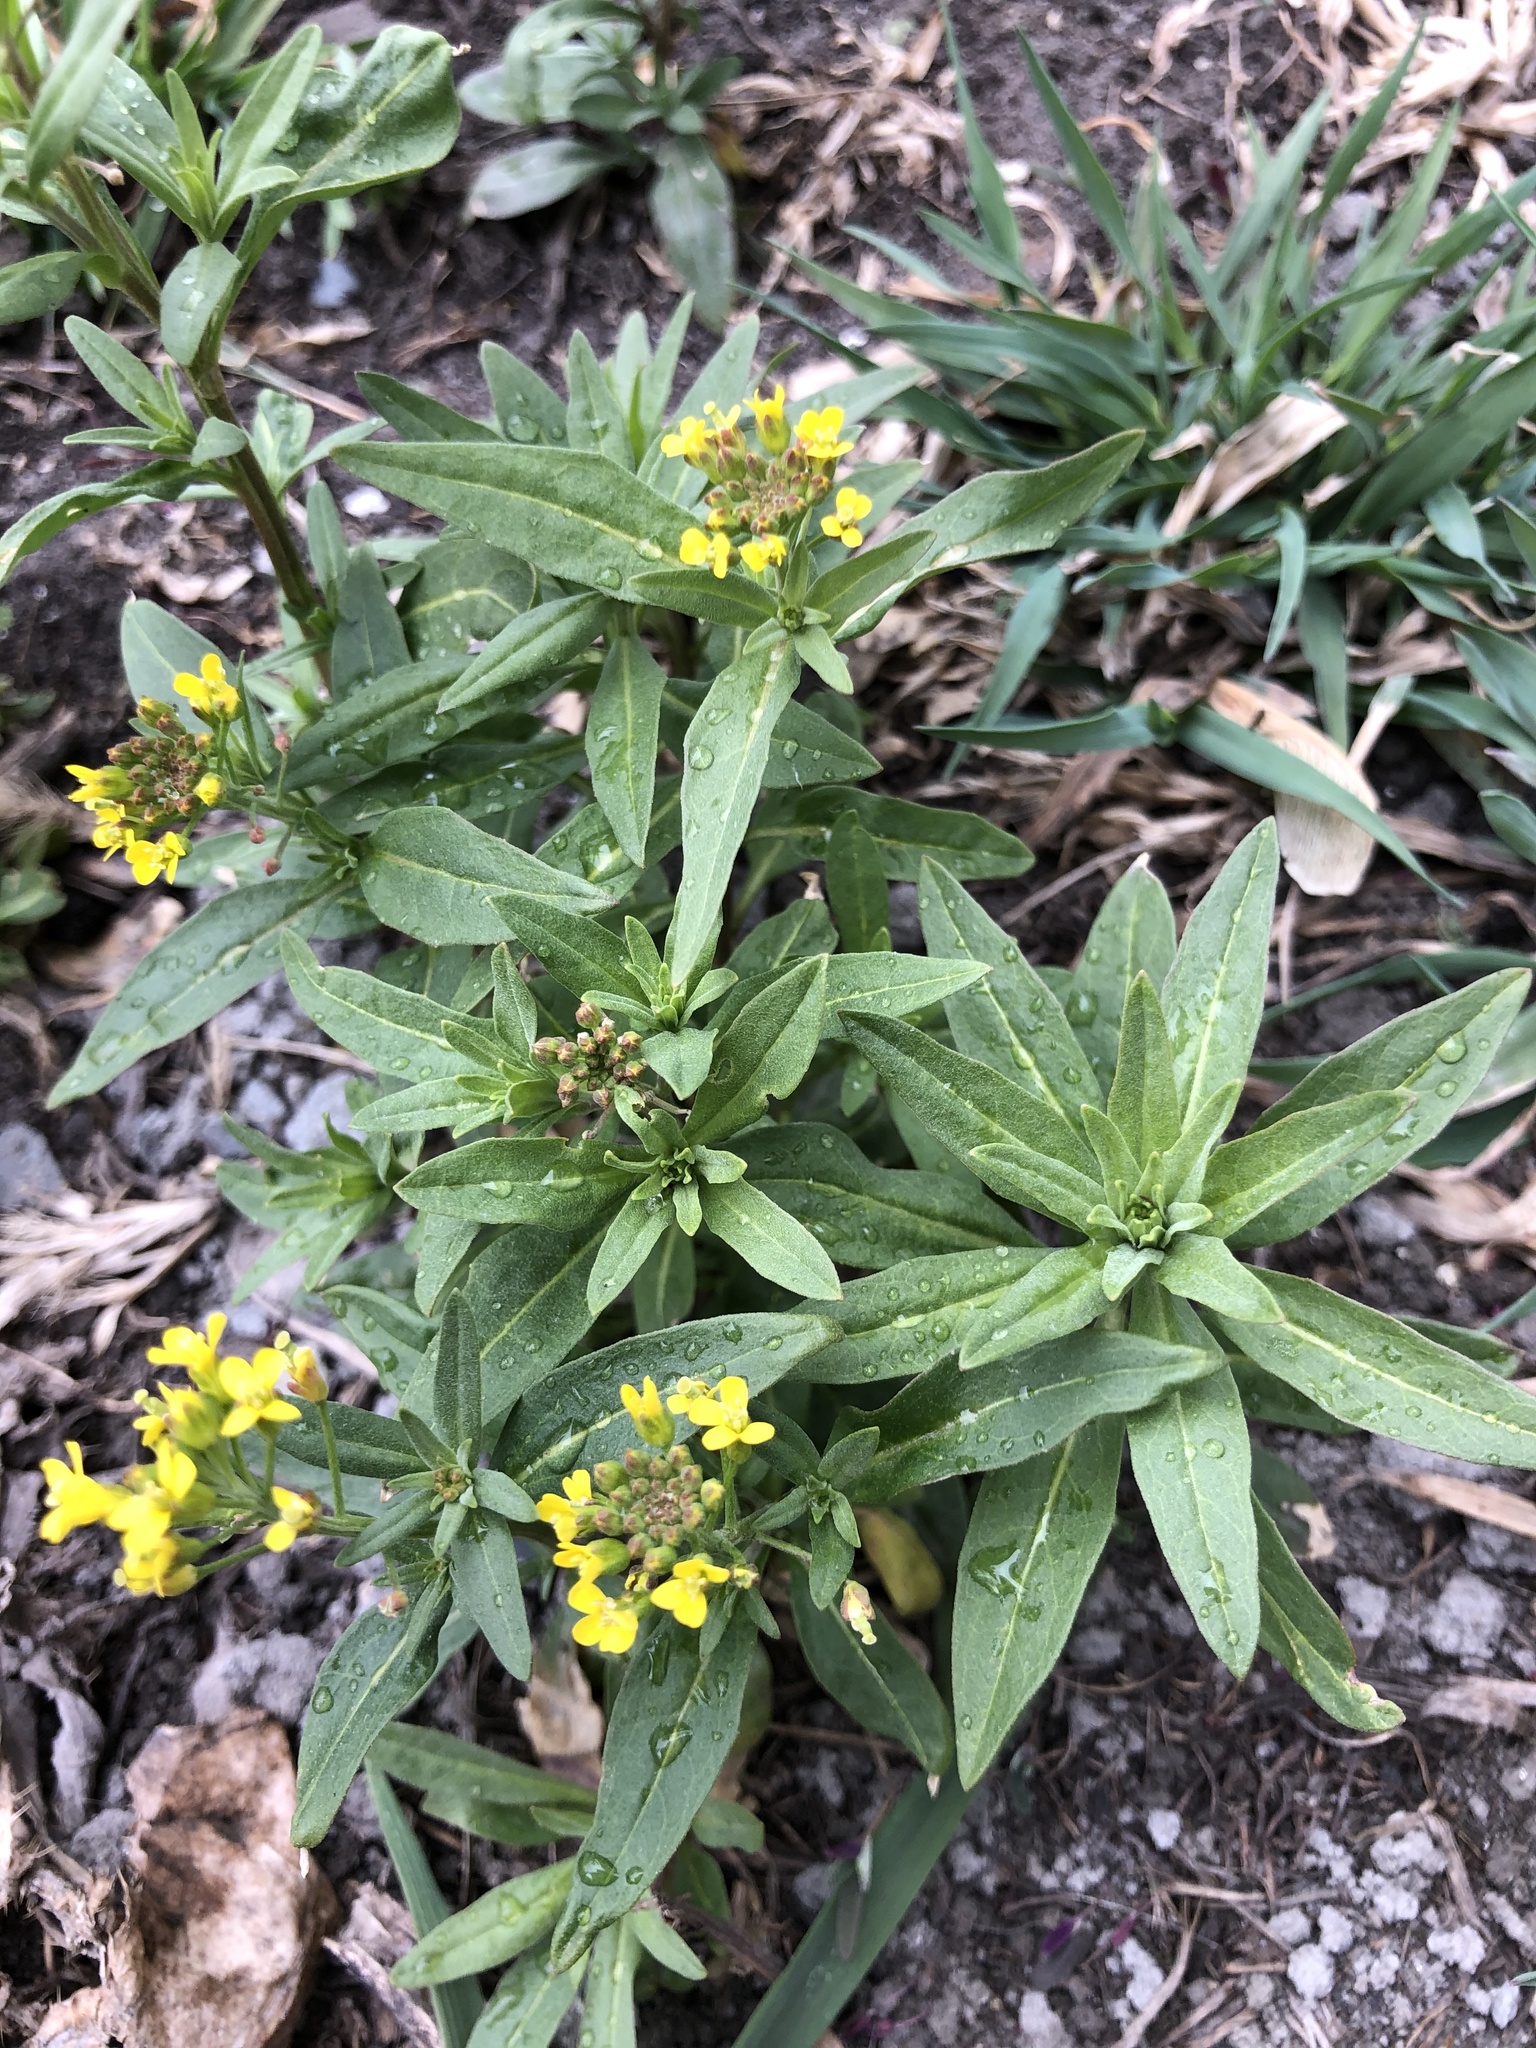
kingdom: Plantae
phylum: Tracheophyta
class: Magnoliopsida
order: Brassicales
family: Brassicaceae
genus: Erysimum
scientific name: Erysimum cheiranthoides
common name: Treacle mustard
